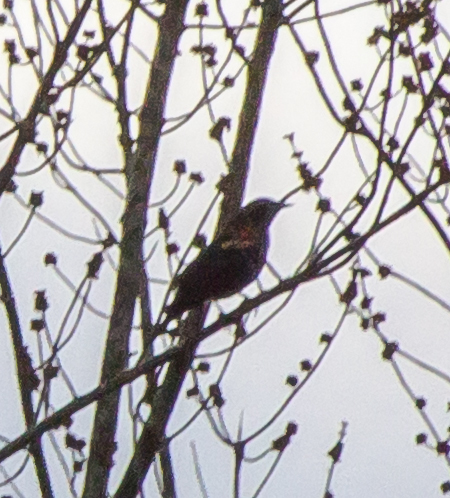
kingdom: Animalia
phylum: Chordata
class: Aves
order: Passeriformes
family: Icteridae
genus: Agelaius
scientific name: Agelaius phoeniceus
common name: Red-winged blackbird
